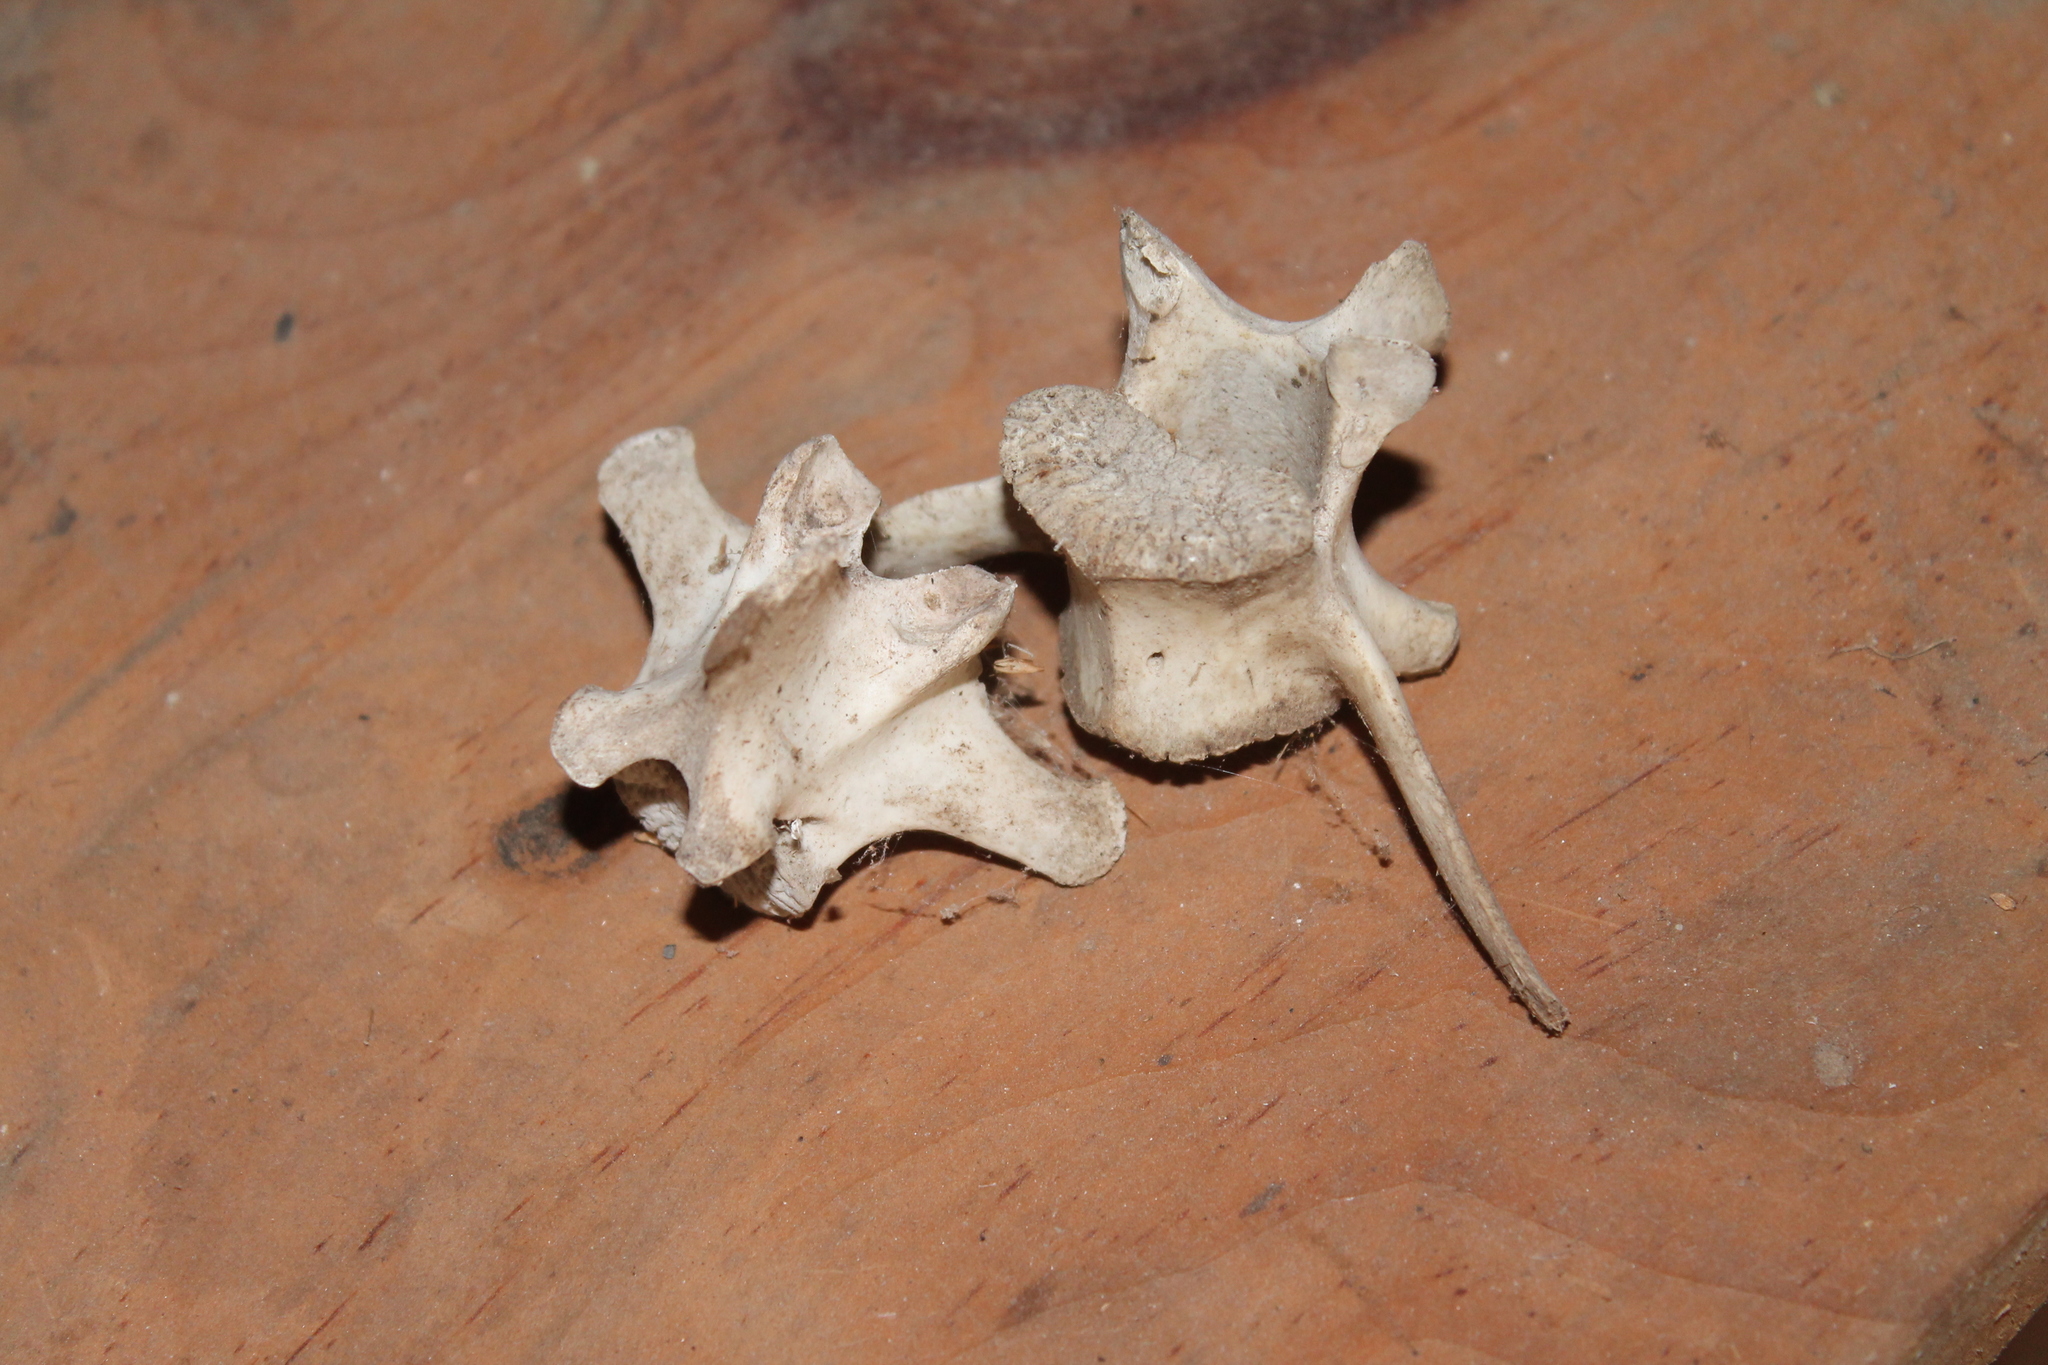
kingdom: Animalia
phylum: Chordata
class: Mammalia
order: Artiodactyla
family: Cervidae
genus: Odocoileus
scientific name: Odocoileus virginianus
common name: White-tailed deer
